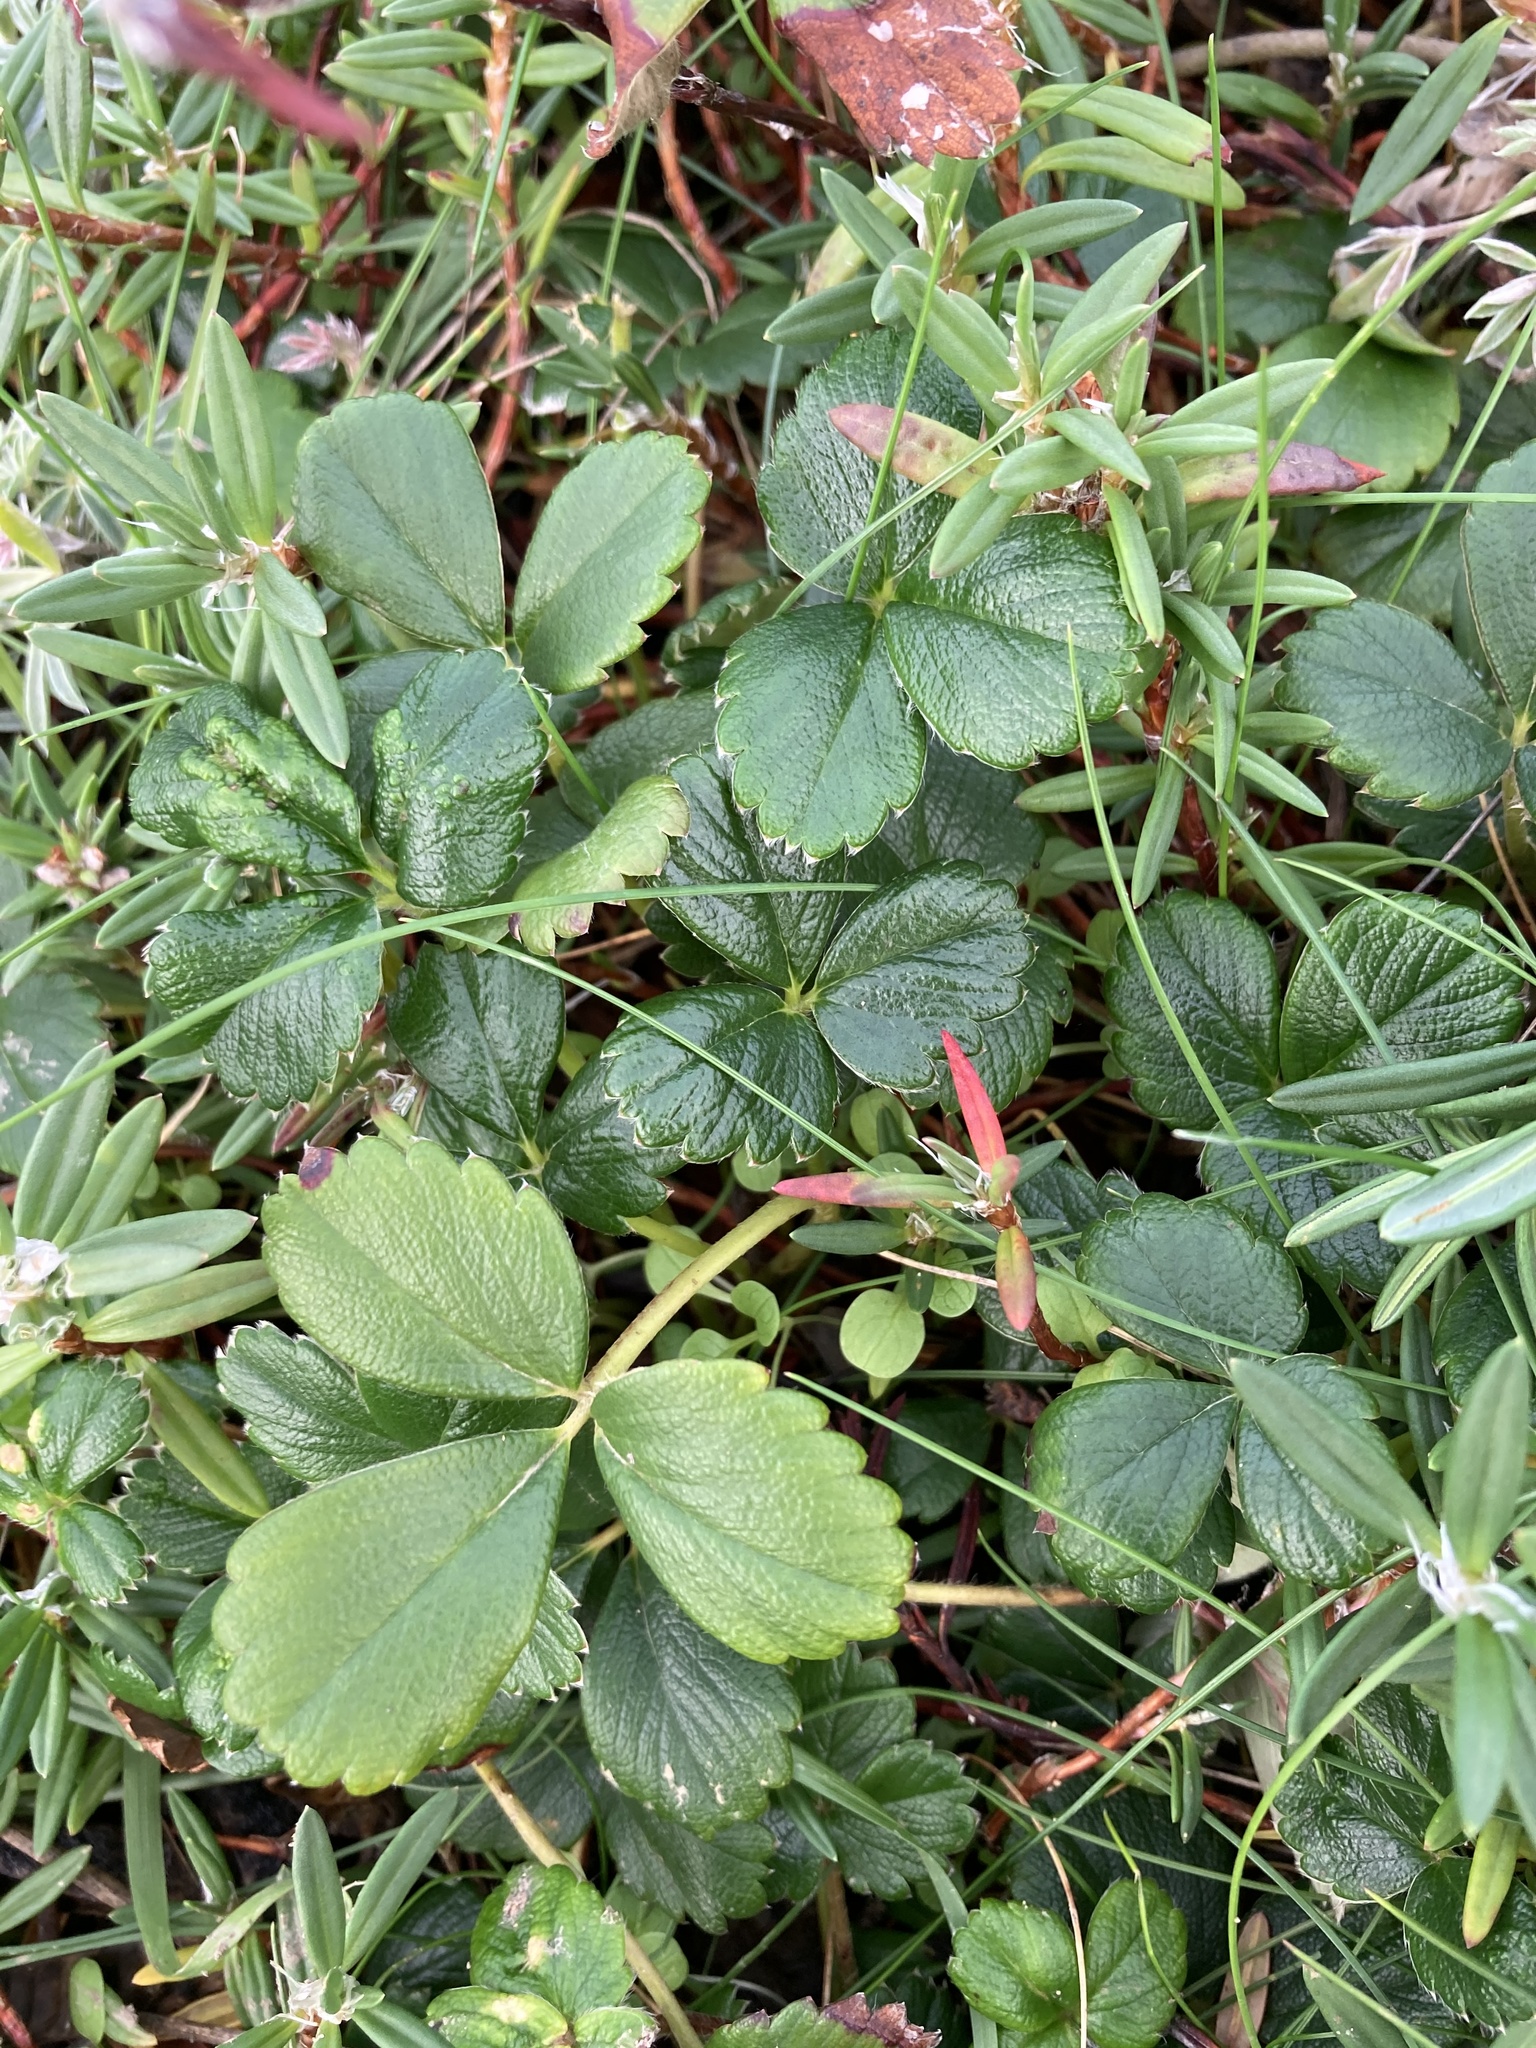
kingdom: Plantae
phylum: Tracheophyta
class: Magnoliopsida
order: Rosales
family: Rosaceae
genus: Fragaria
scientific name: Fragaria chiloensis
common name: Beach strawberry
